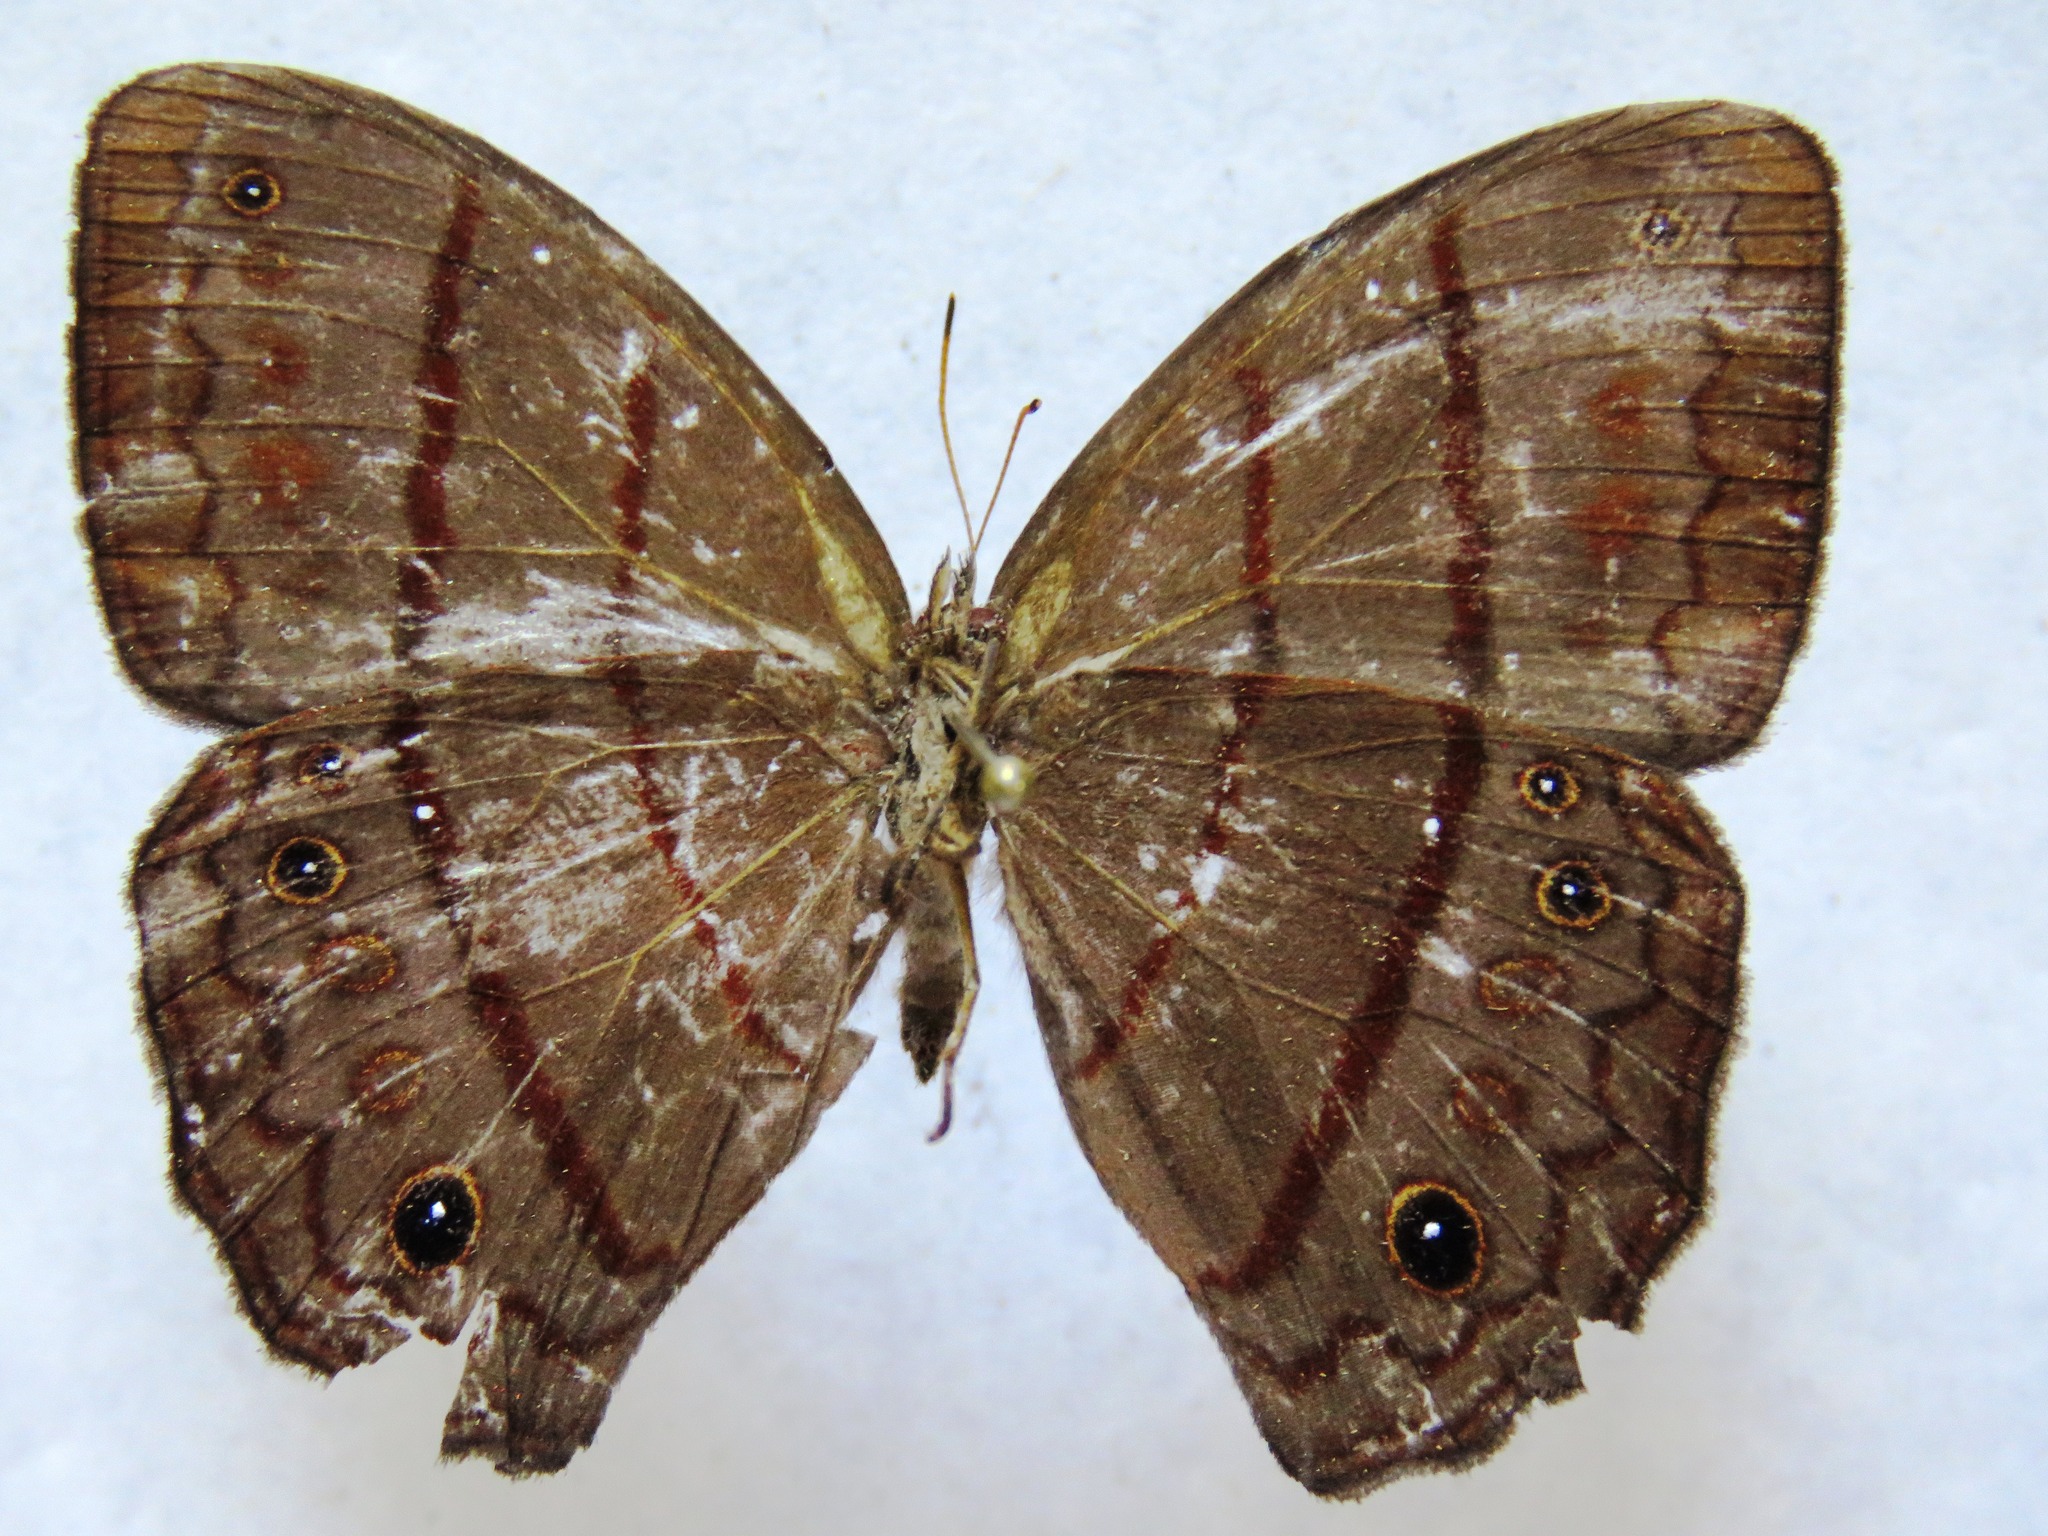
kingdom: Animalia
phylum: Arthropoda
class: Insecta
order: Lepidoptera
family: Nymphalidae
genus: Satyrotaygetis
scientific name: Satyrotaygetis satyrina
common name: Wide-bordered satyr
